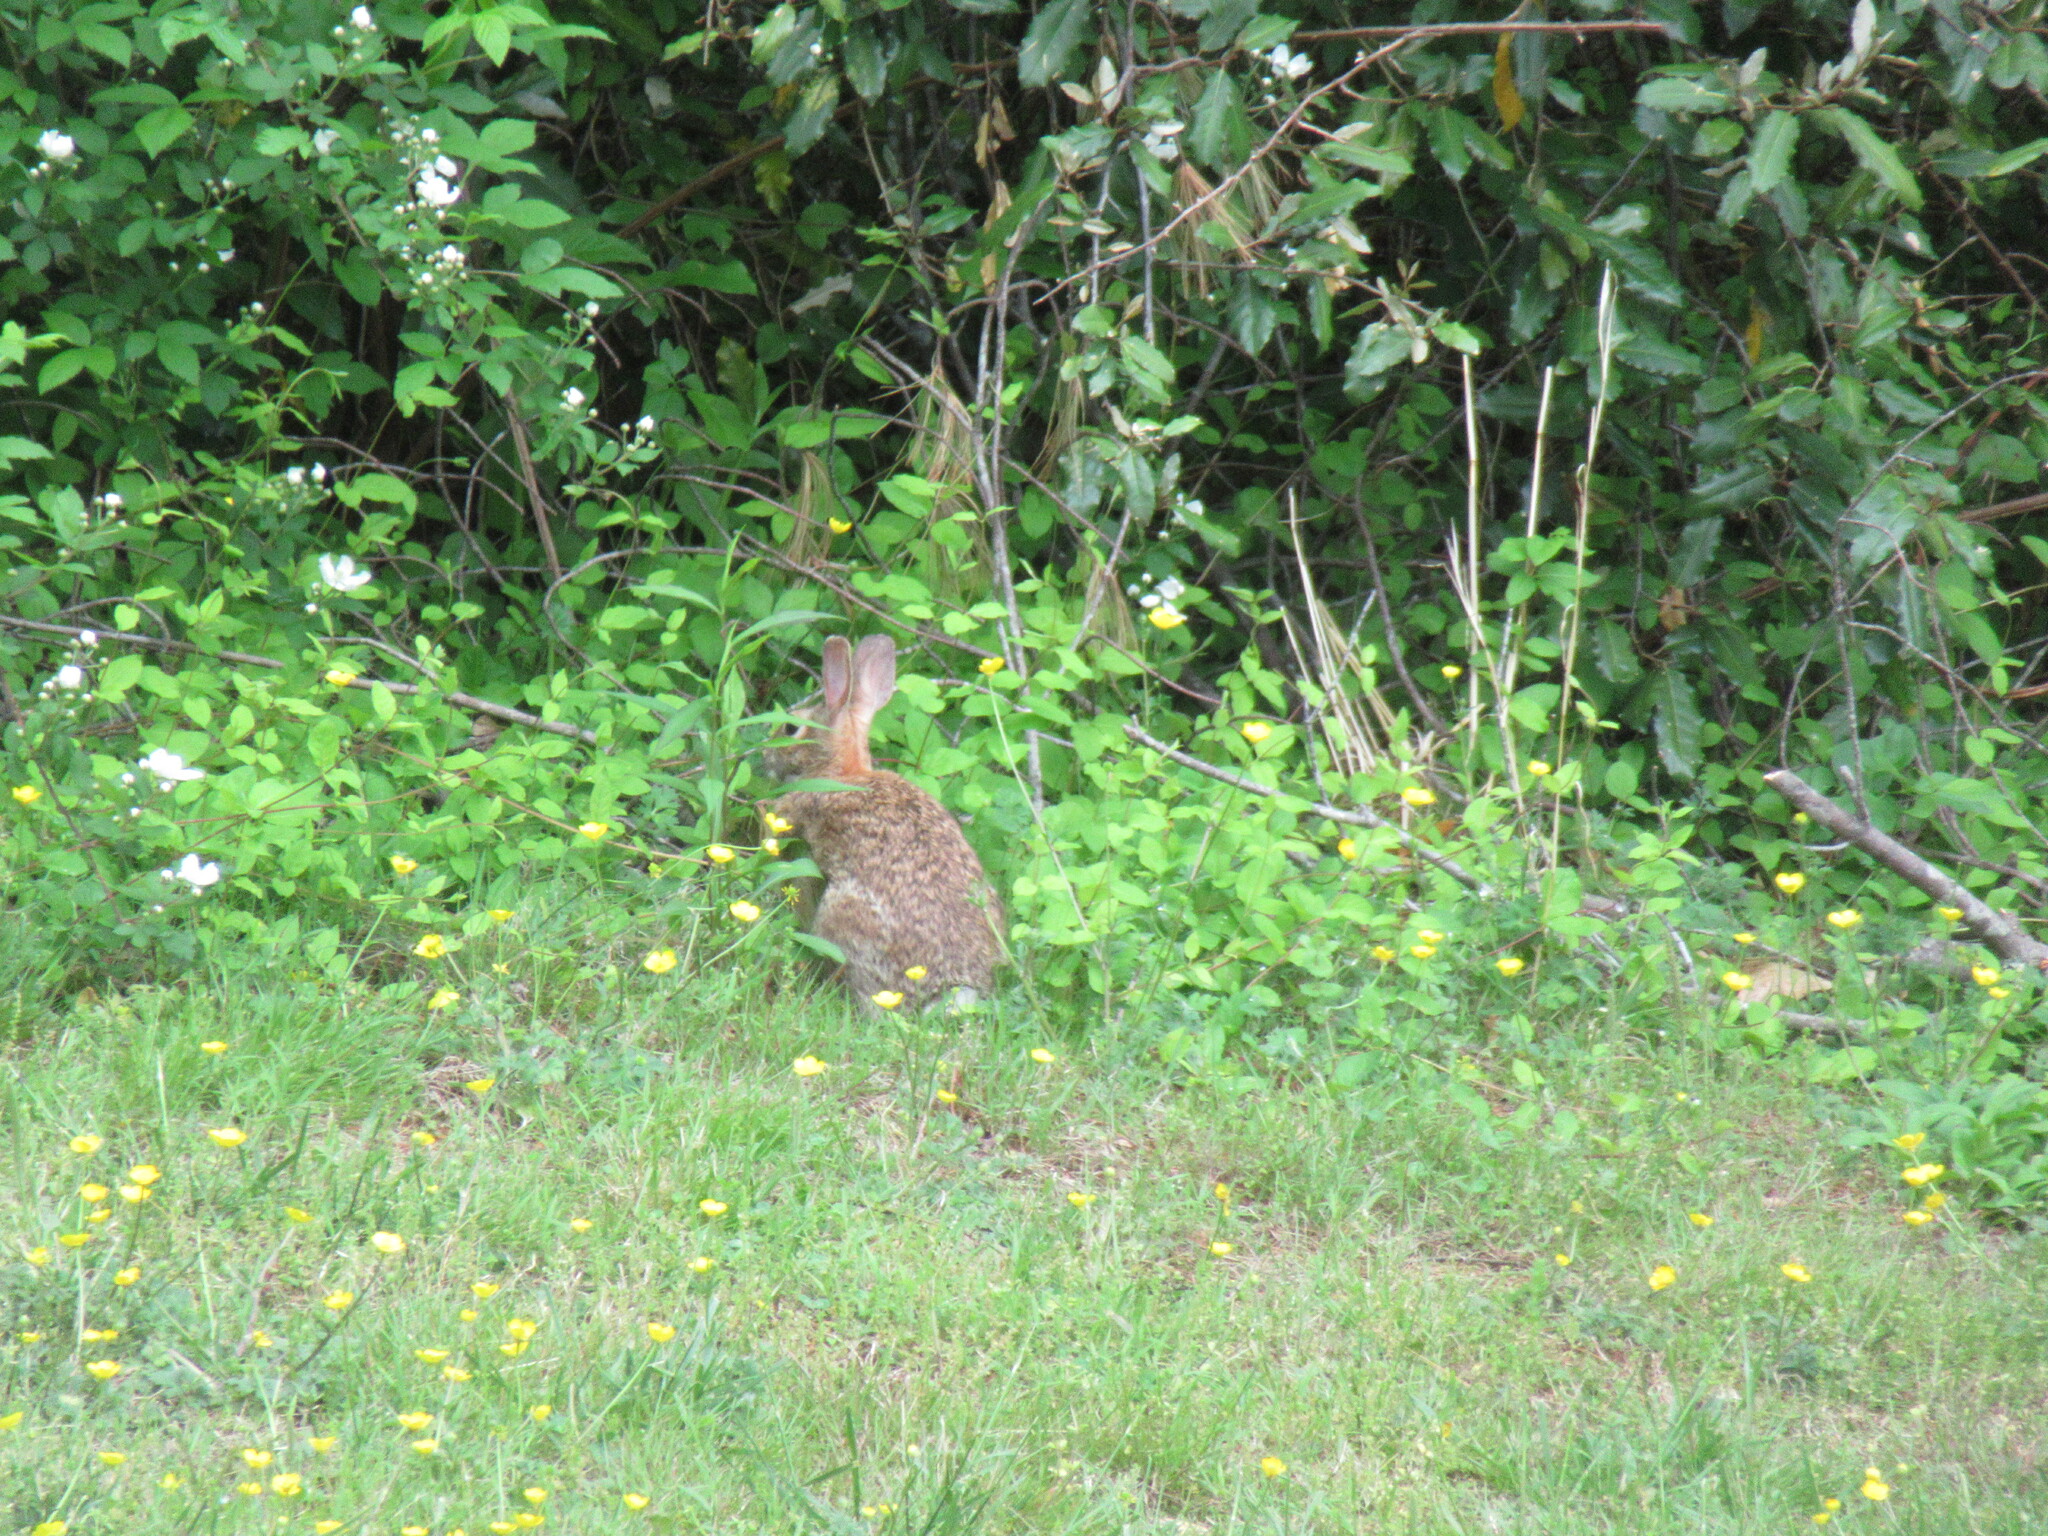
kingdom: Animalia
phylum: Chordata
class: Mammalia
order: Lagomorpha
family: Leporidae
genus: Sylvilagus
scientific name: Sylvilagus floridanus
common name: Eastern cottontail
